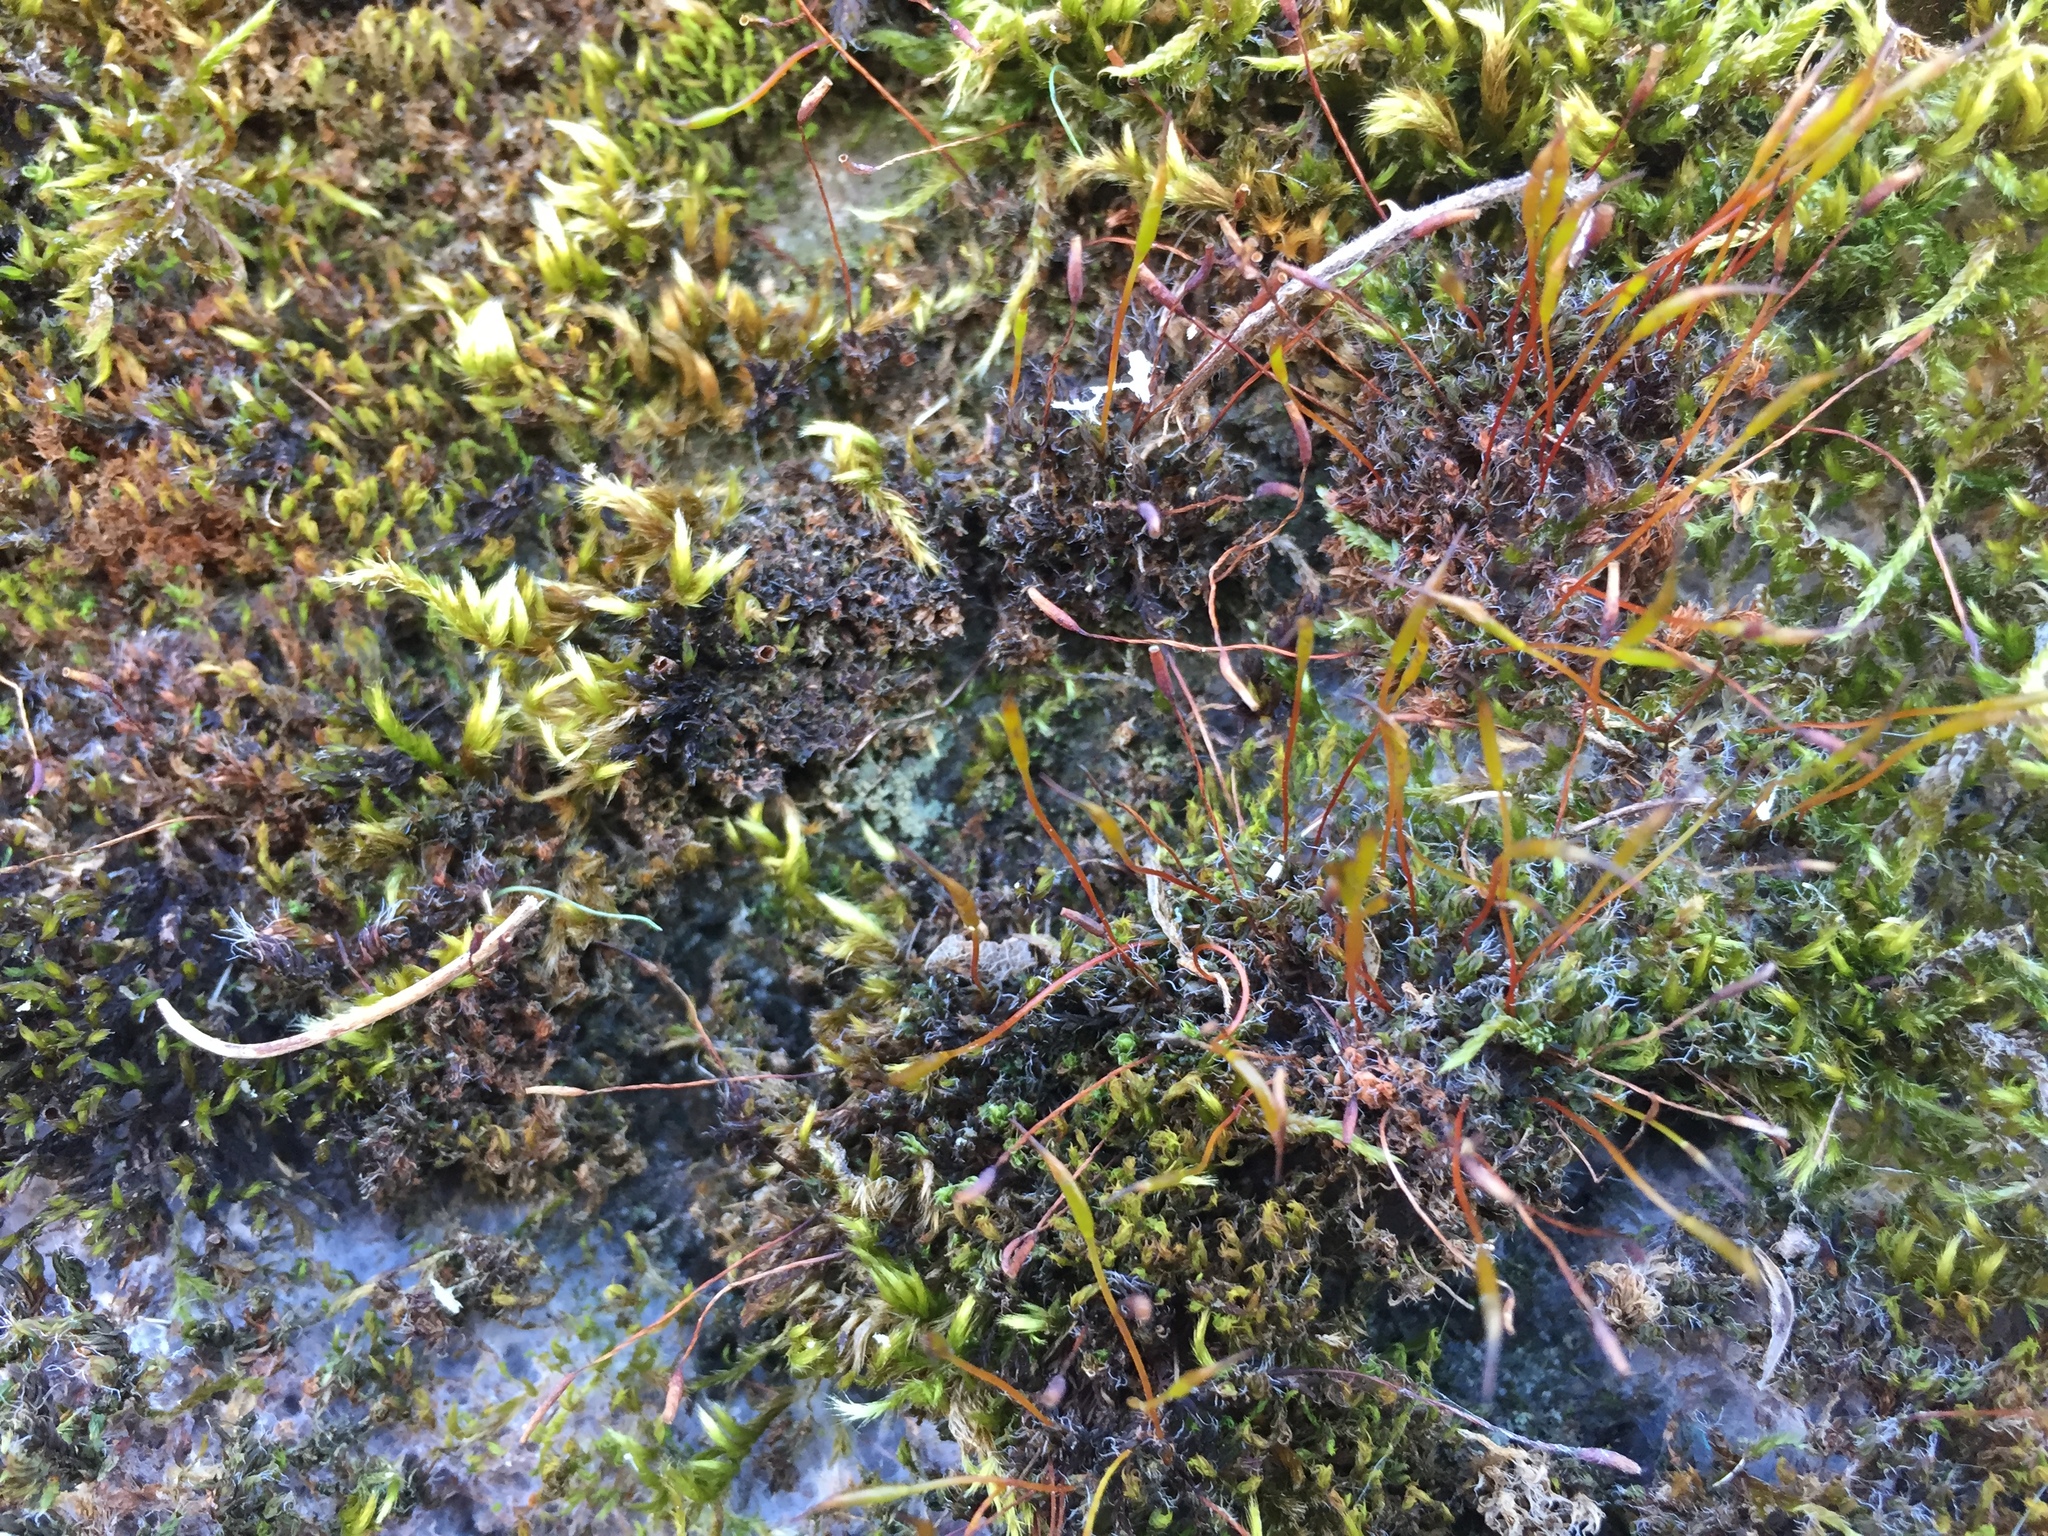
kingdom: Plantae
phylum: Bryophyta
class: Bryopsida
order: Pottiales
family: Pottiaceae
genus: Tortula
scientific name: Tortula muralis
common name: Wall screw-moss
